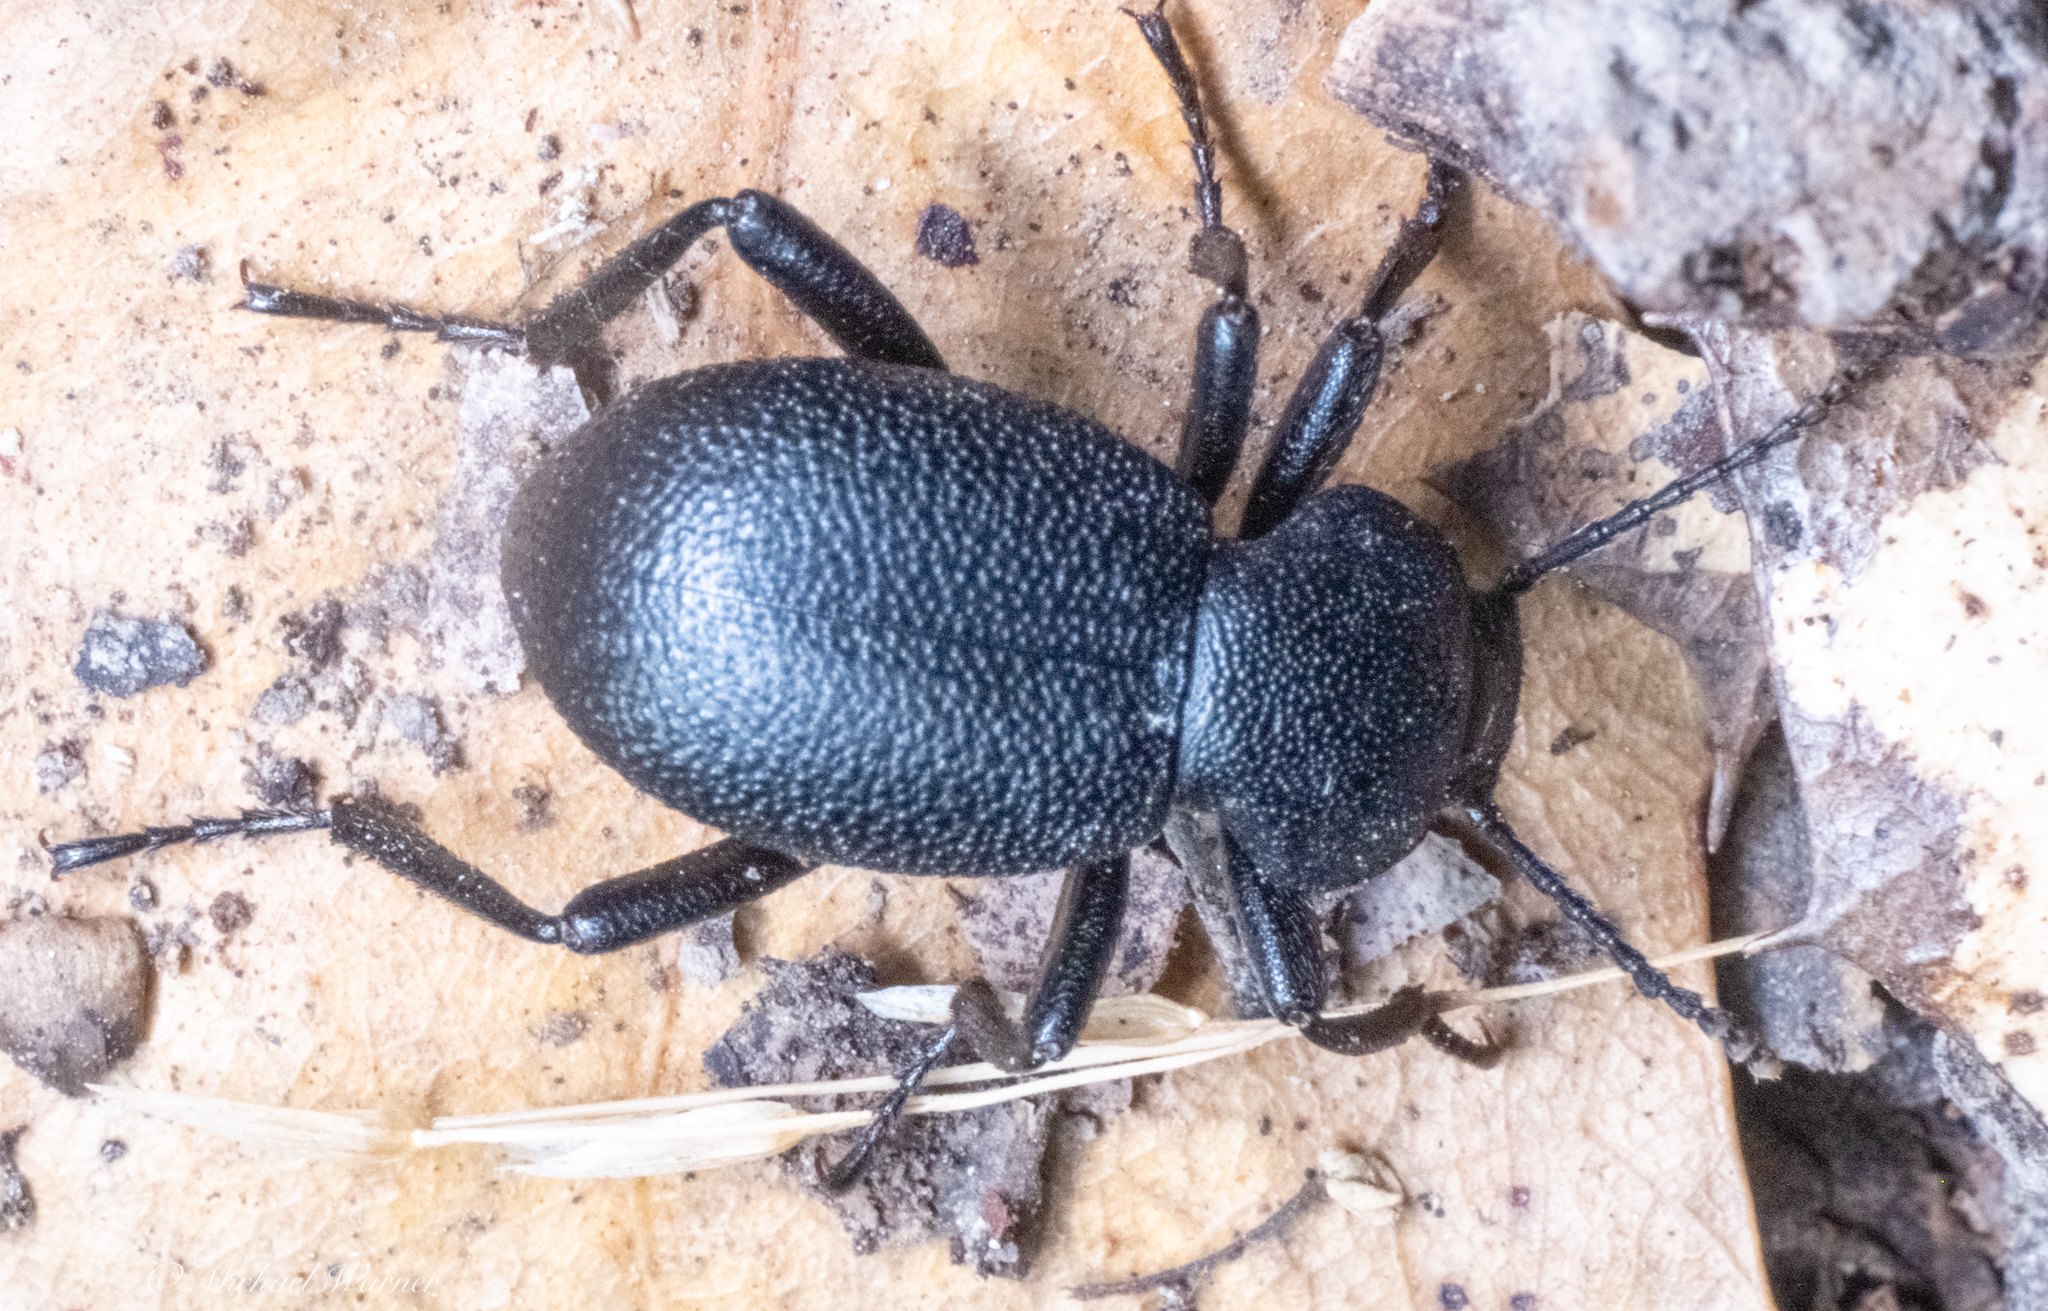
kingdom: Animalia
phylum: Arthropoda
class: Insecta
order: Coleoptera
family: Tenebrionidae
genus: Eleodes
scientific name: Eleodes cordata
